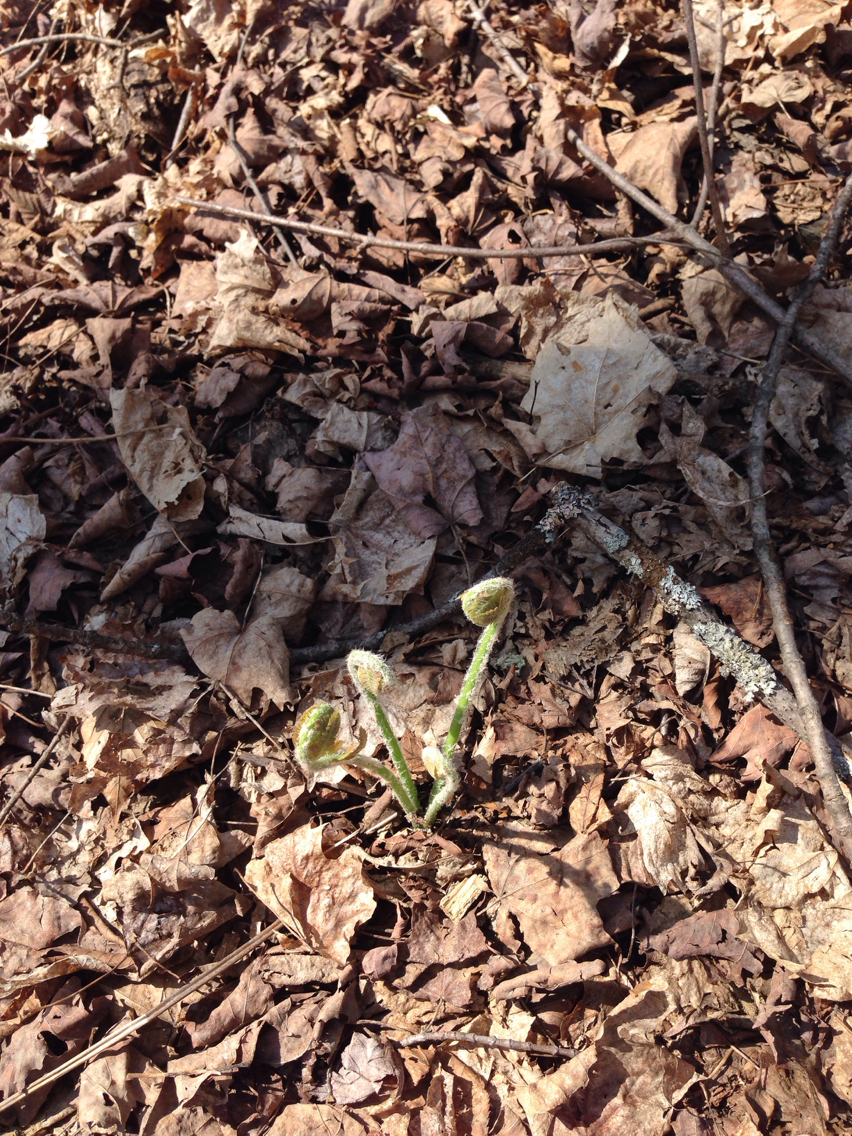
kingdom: Plantae
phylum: Tracheophyta
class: Polypodiopsida
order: Osmundales
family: Osmundaceae
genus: Claytosmunda
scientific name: Claytosmunda claytoniana
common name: Clayton's fern
